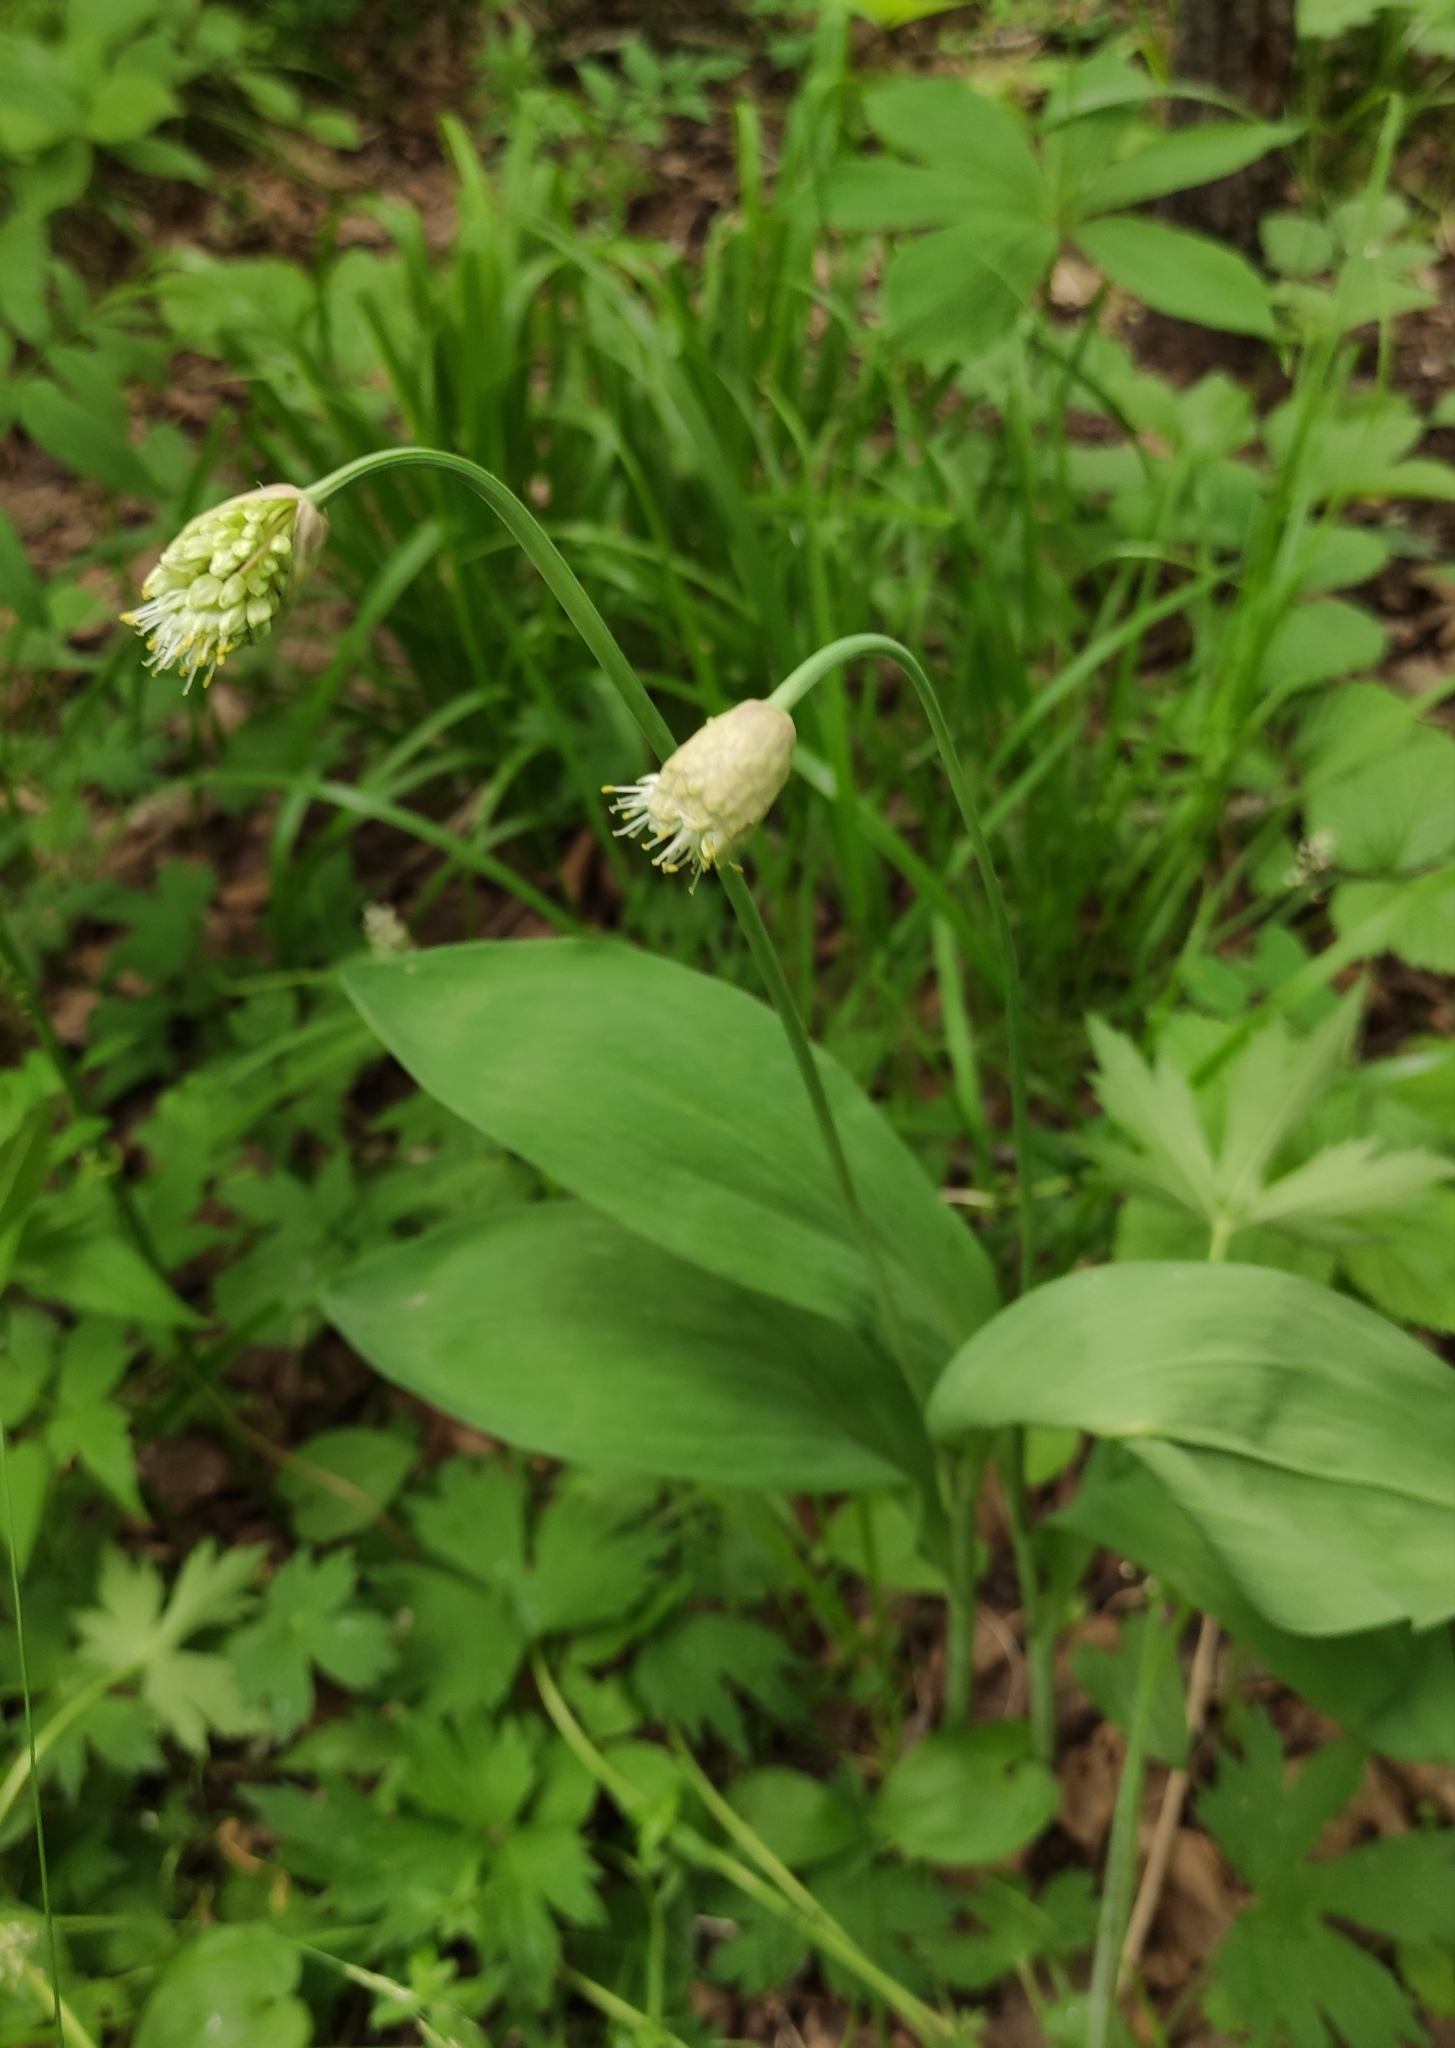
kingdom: Plantae
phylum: Tracheophyta
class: Liliopsida
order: Asparagales
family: Amaryllidaceae
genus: Allium
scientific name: Allium microdictyon
